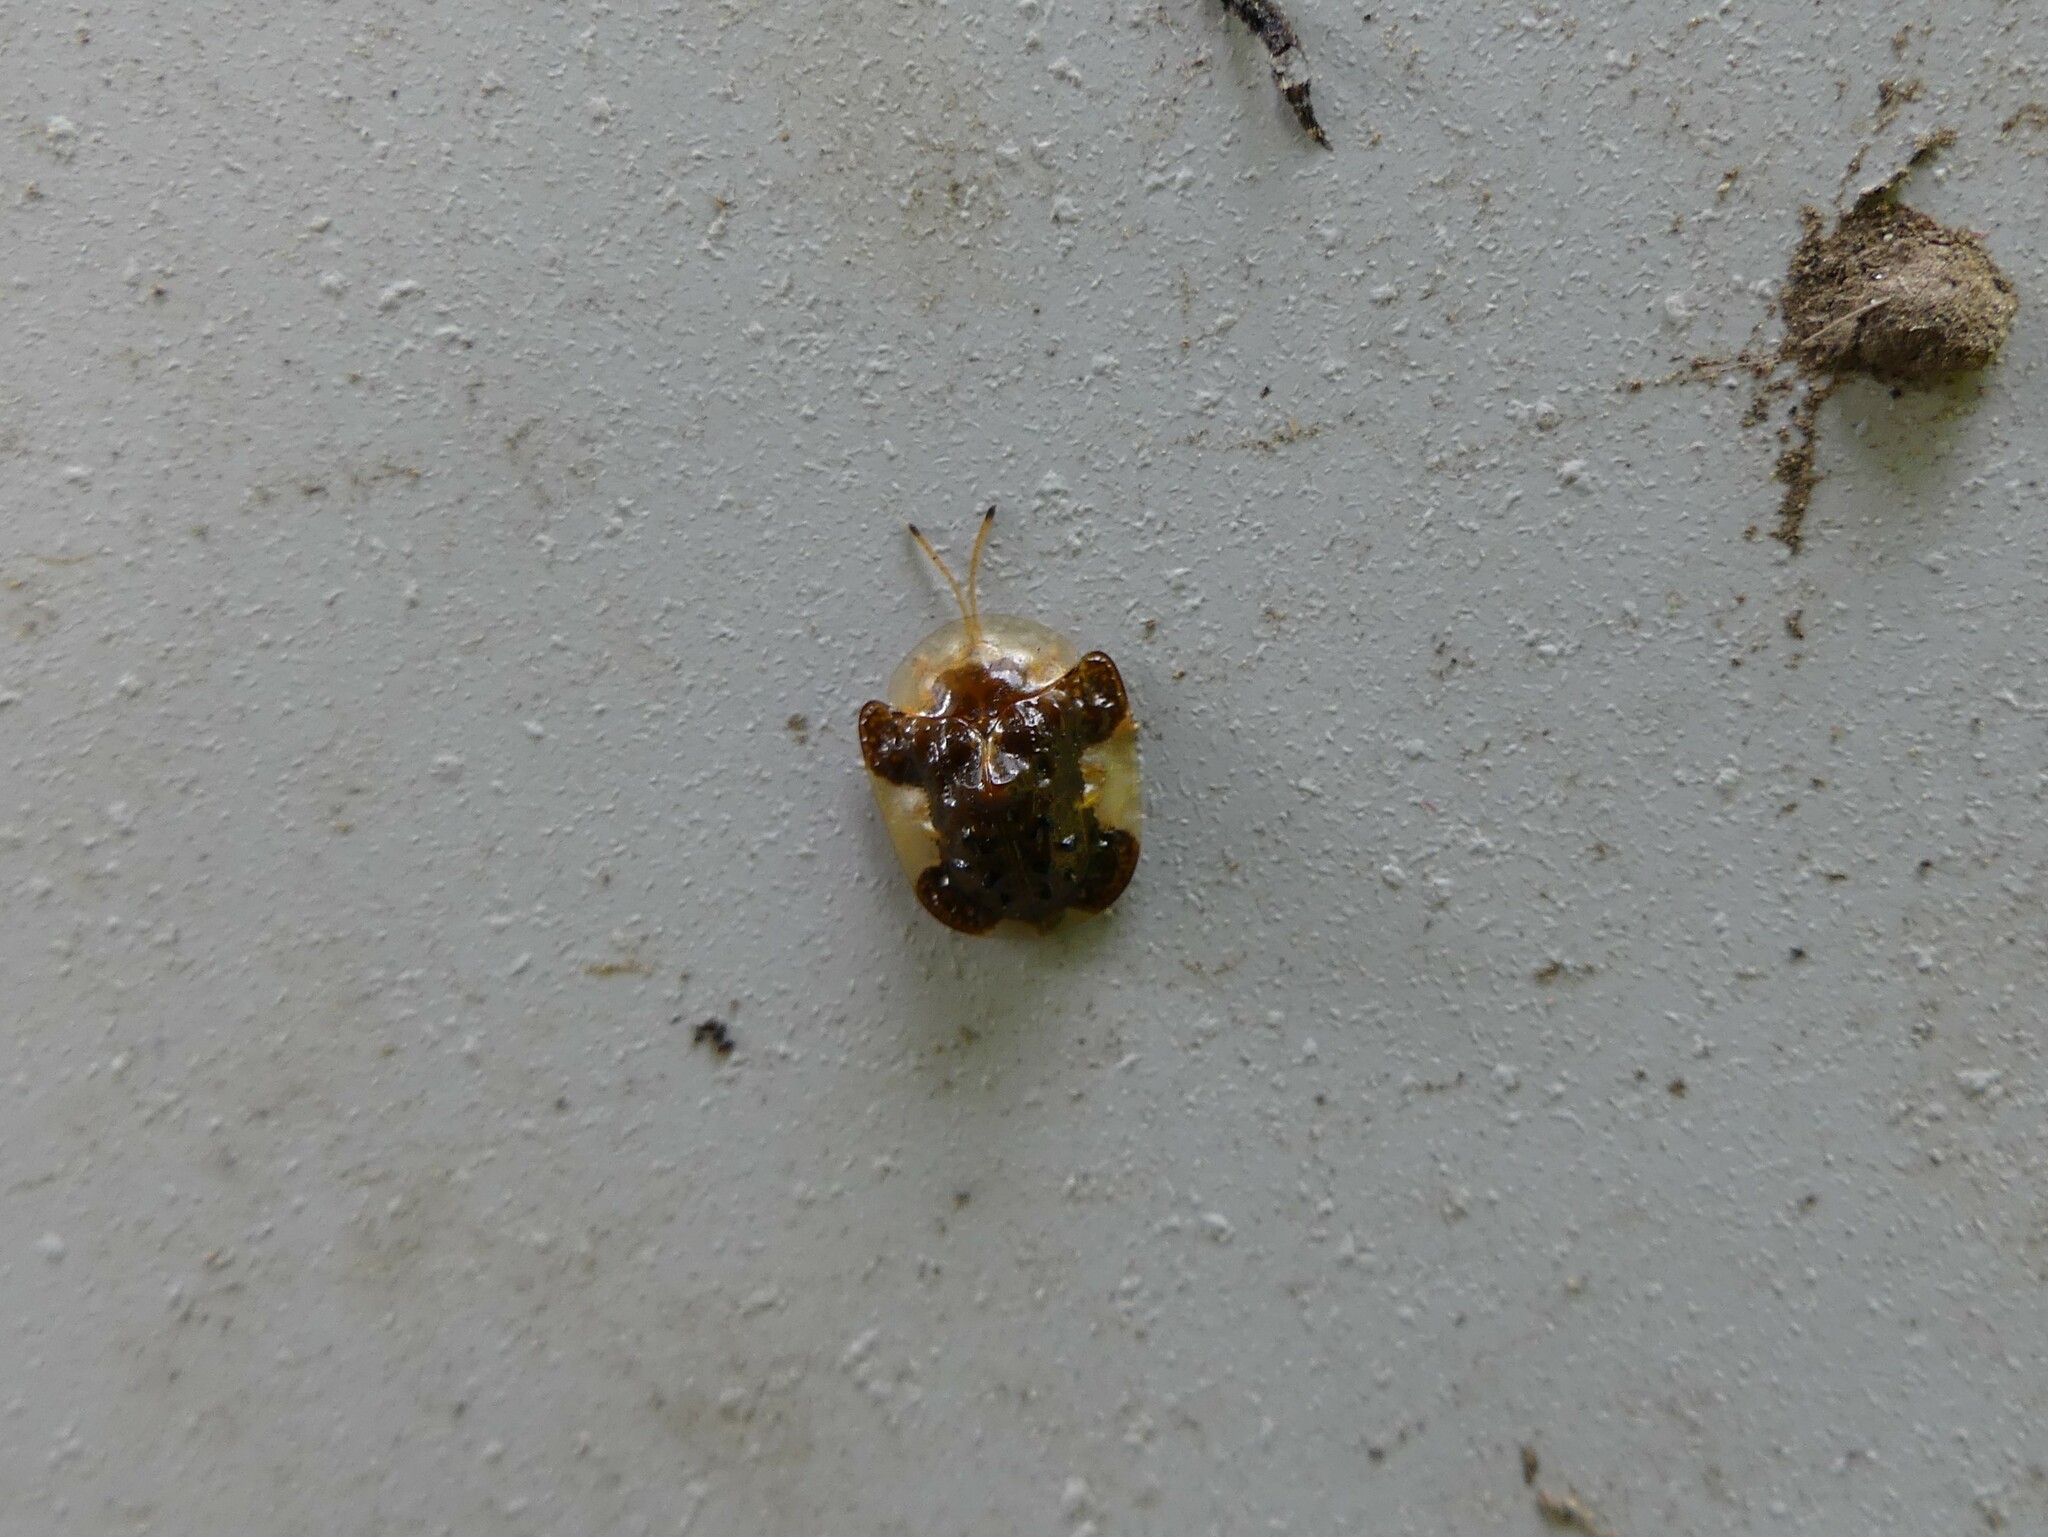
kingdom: Animalia
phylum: Arthropoda
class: Insecta
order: Coleoptera
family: Chrysomelidae
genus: Helocassis
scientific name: Helocassis clavata
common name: Clavate tortoise beetle
